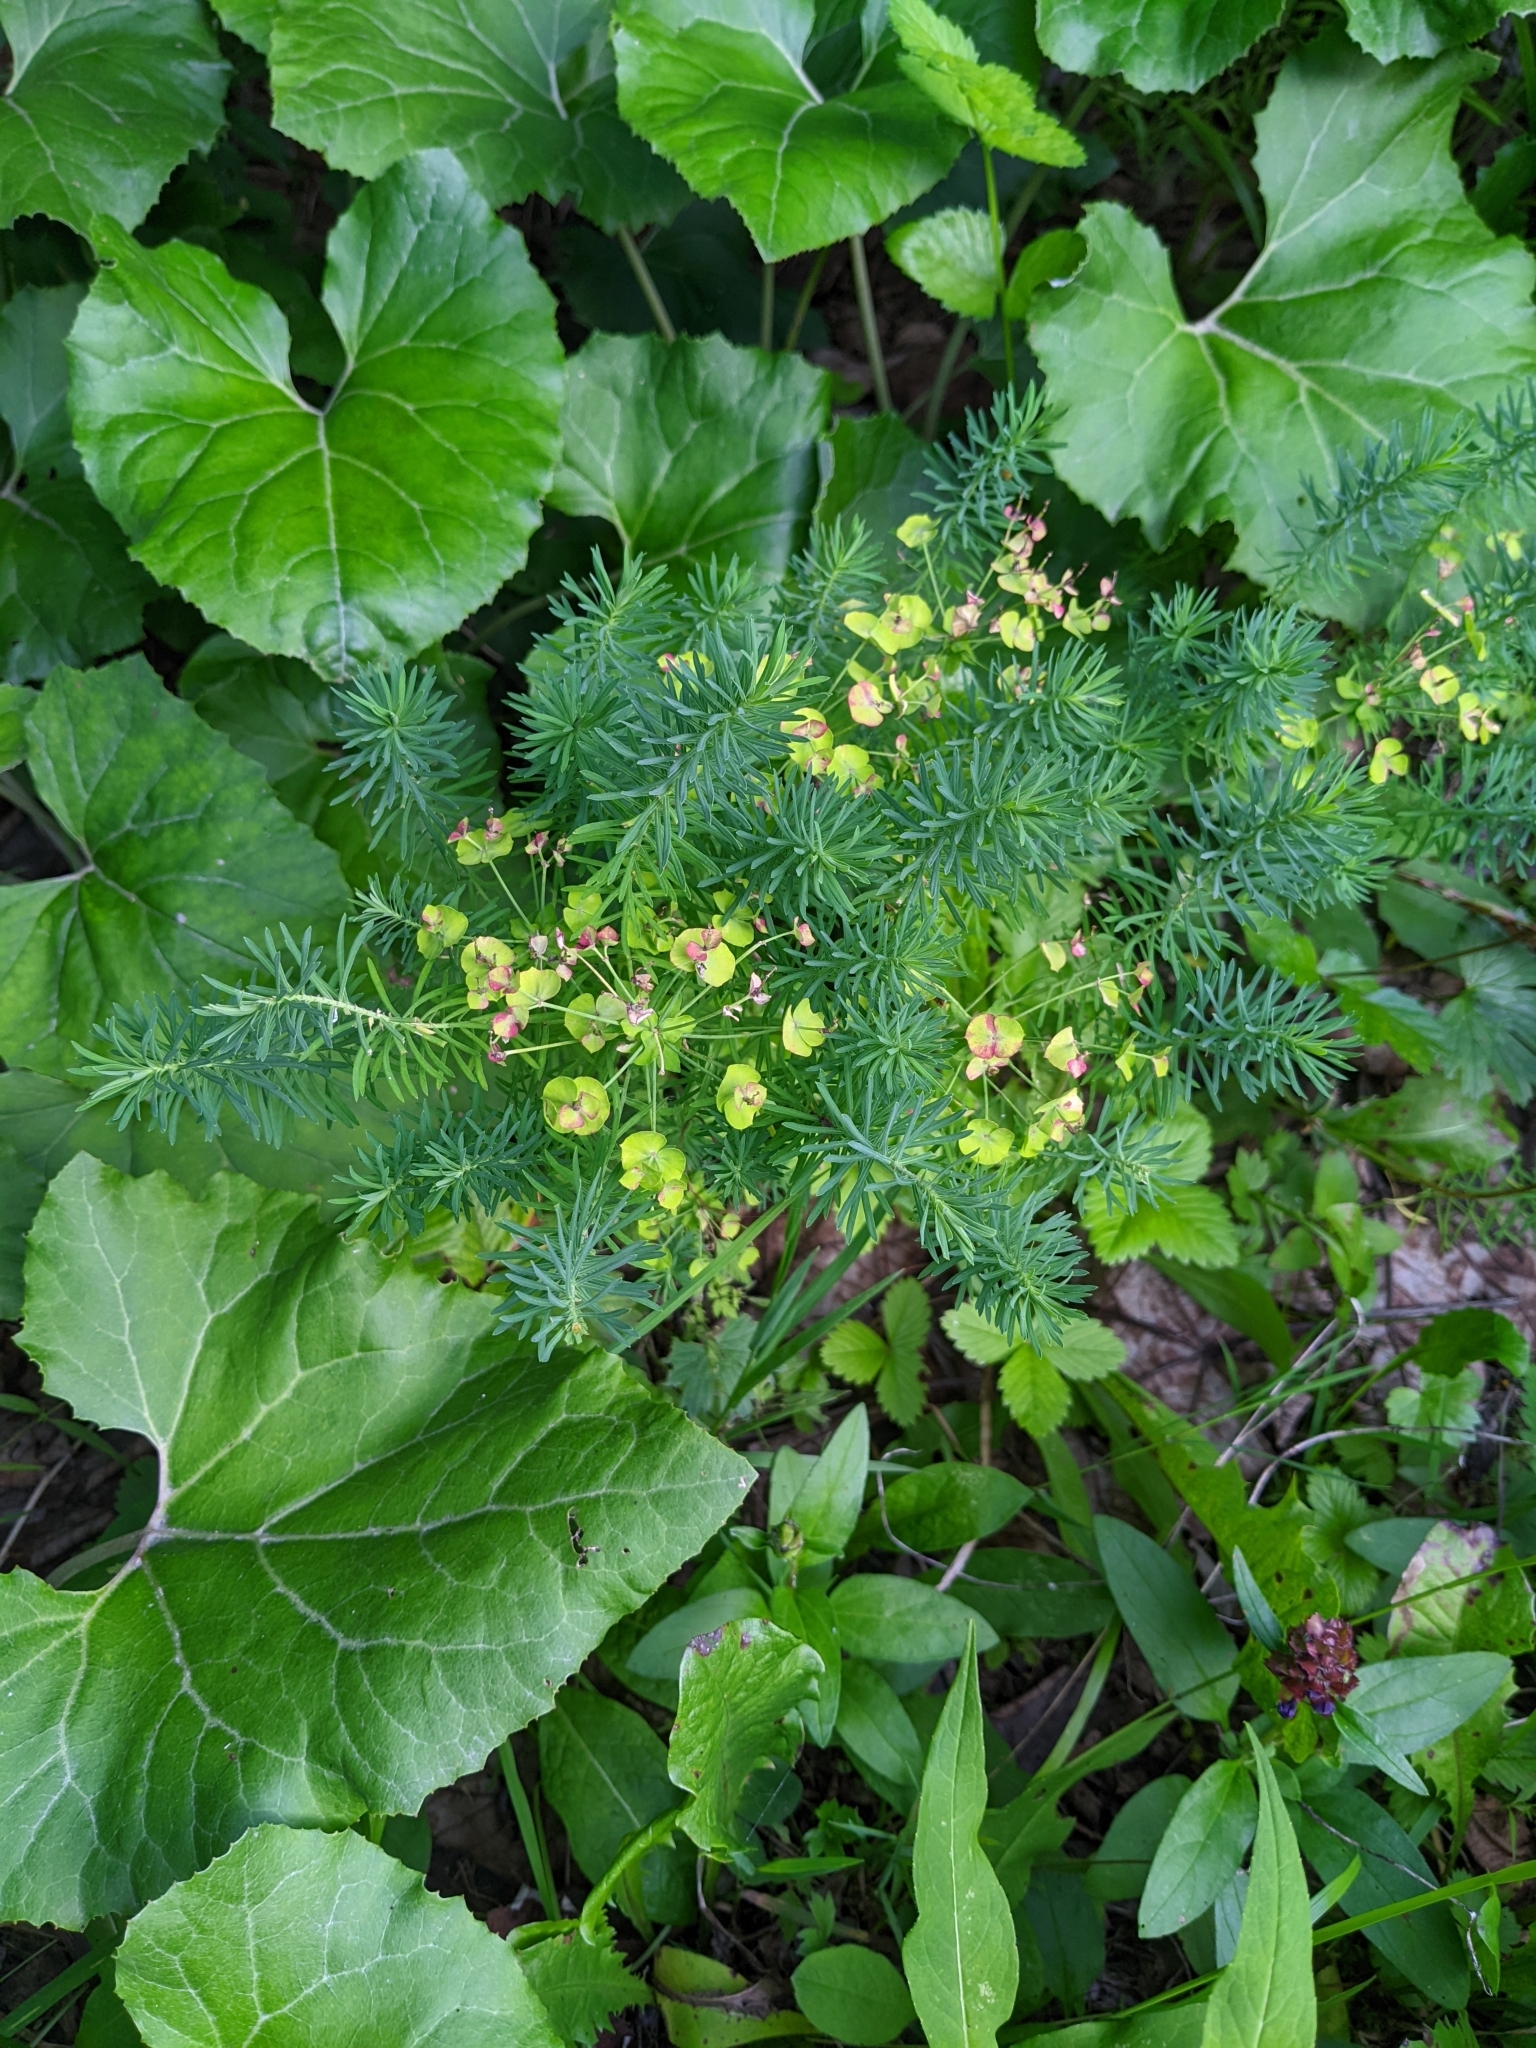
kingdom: Plantae
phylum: Tracheophyta
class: Magnoliopsida
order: Malpighiales
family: Euphorbiaceae
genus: Euphorbia
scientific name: Euphorbia cyparissias
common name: Cypress spurge
